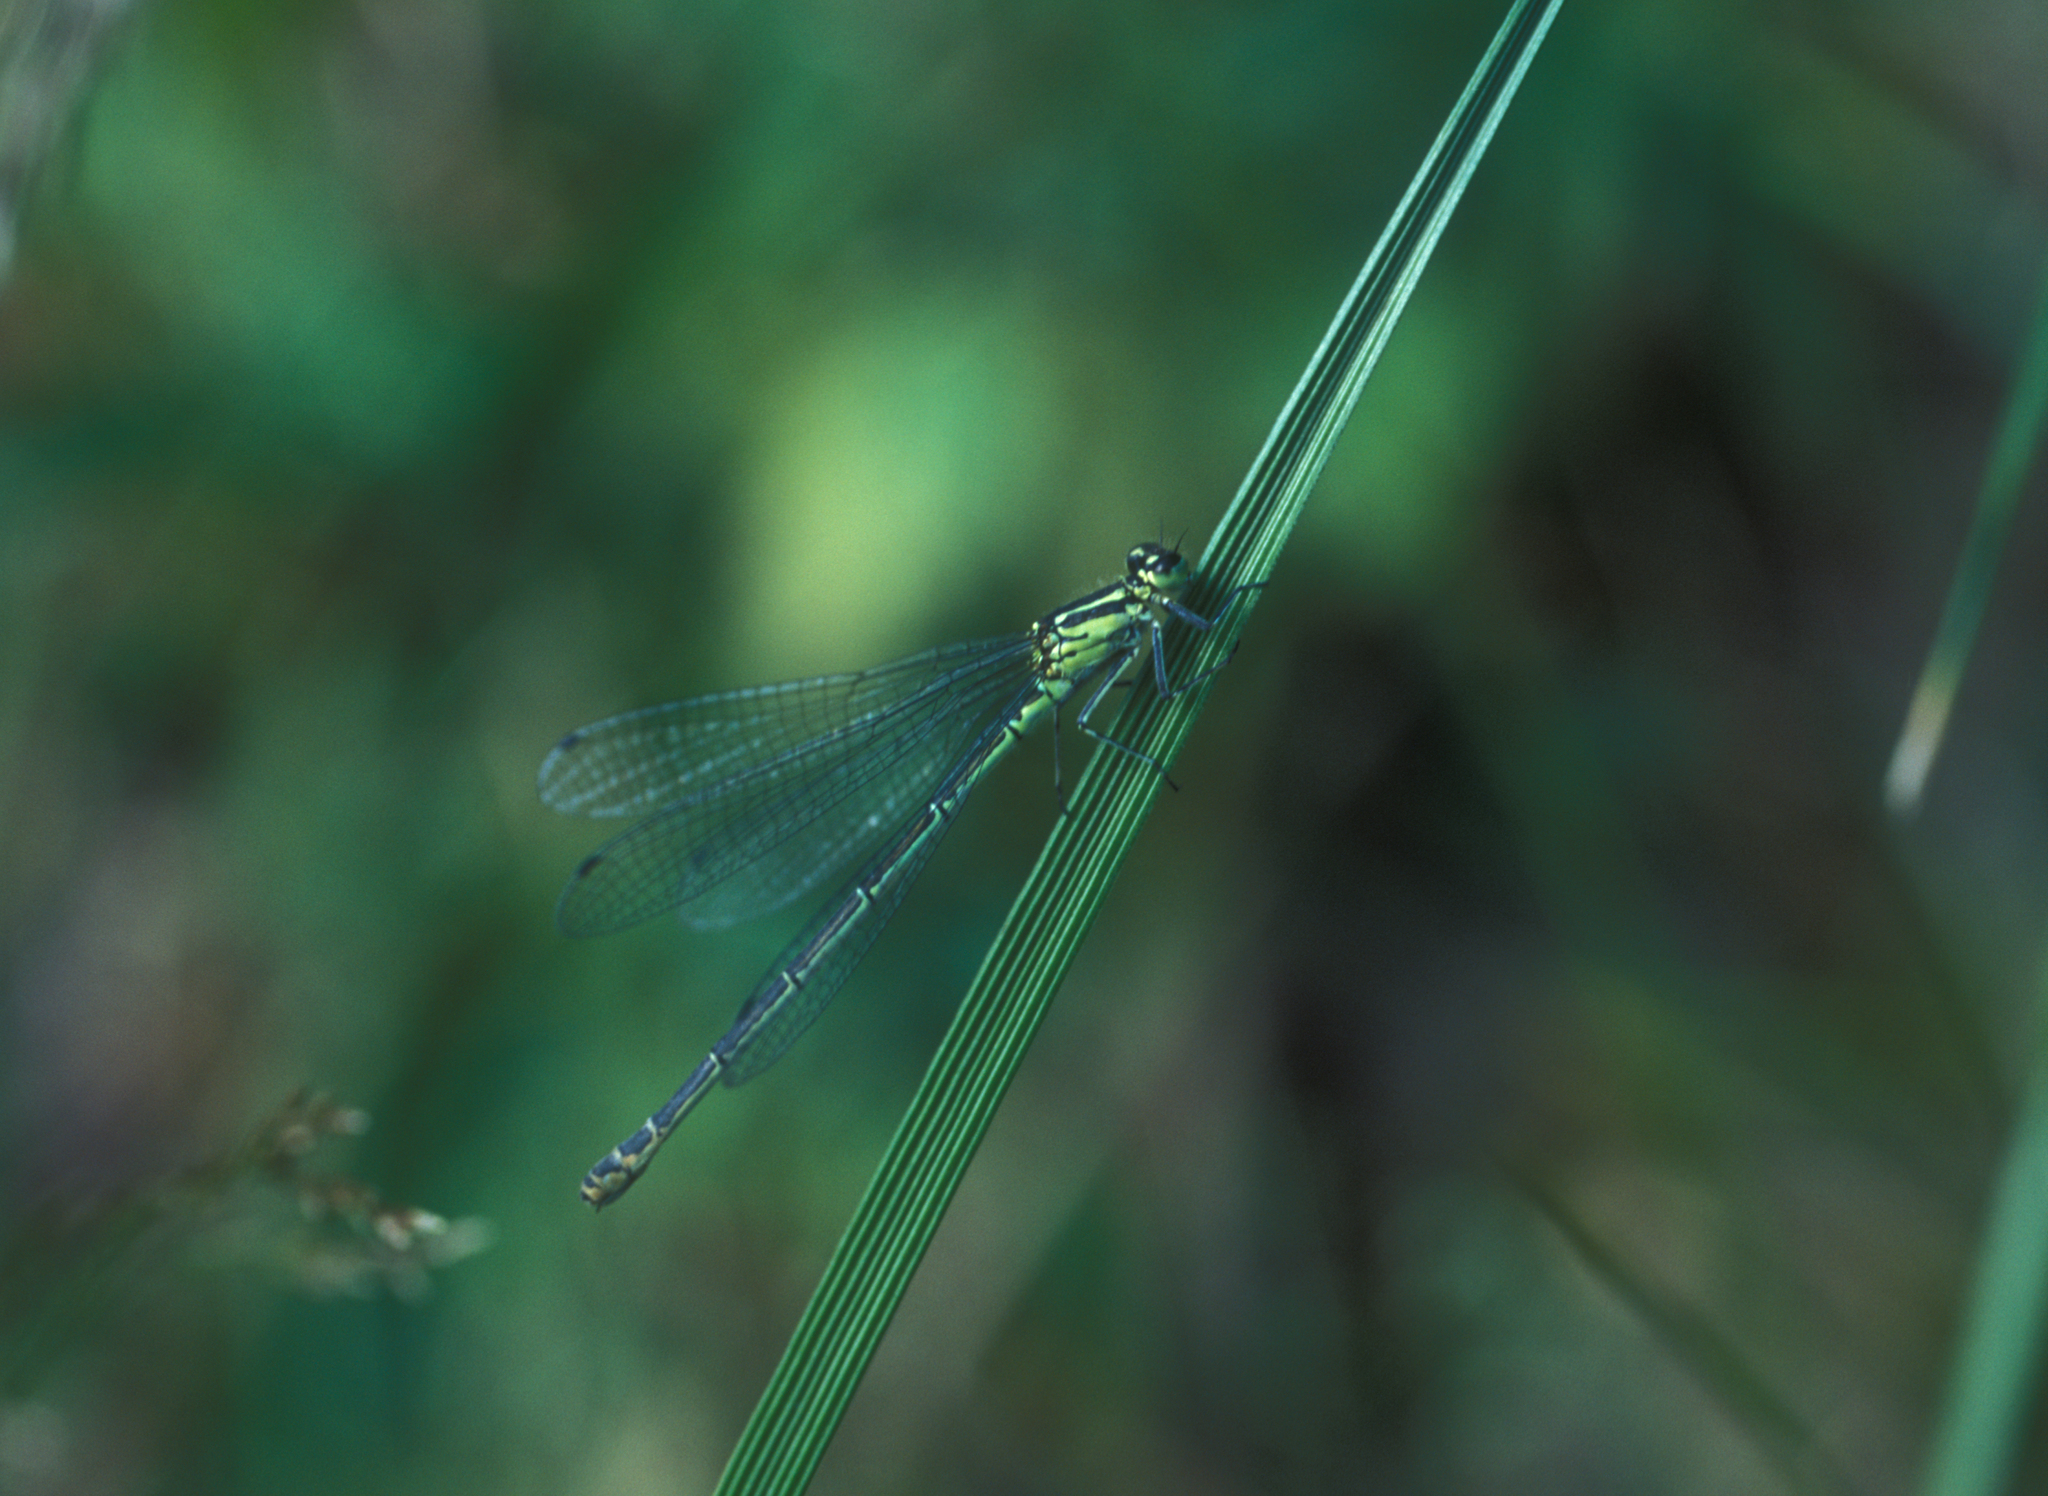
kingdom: Animalia
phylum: Arthropoda
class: Insecta
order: Odonata
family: Coenagrionidae
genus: Coenagrion
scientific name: Coenagrion puella
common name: Azure damselfly
